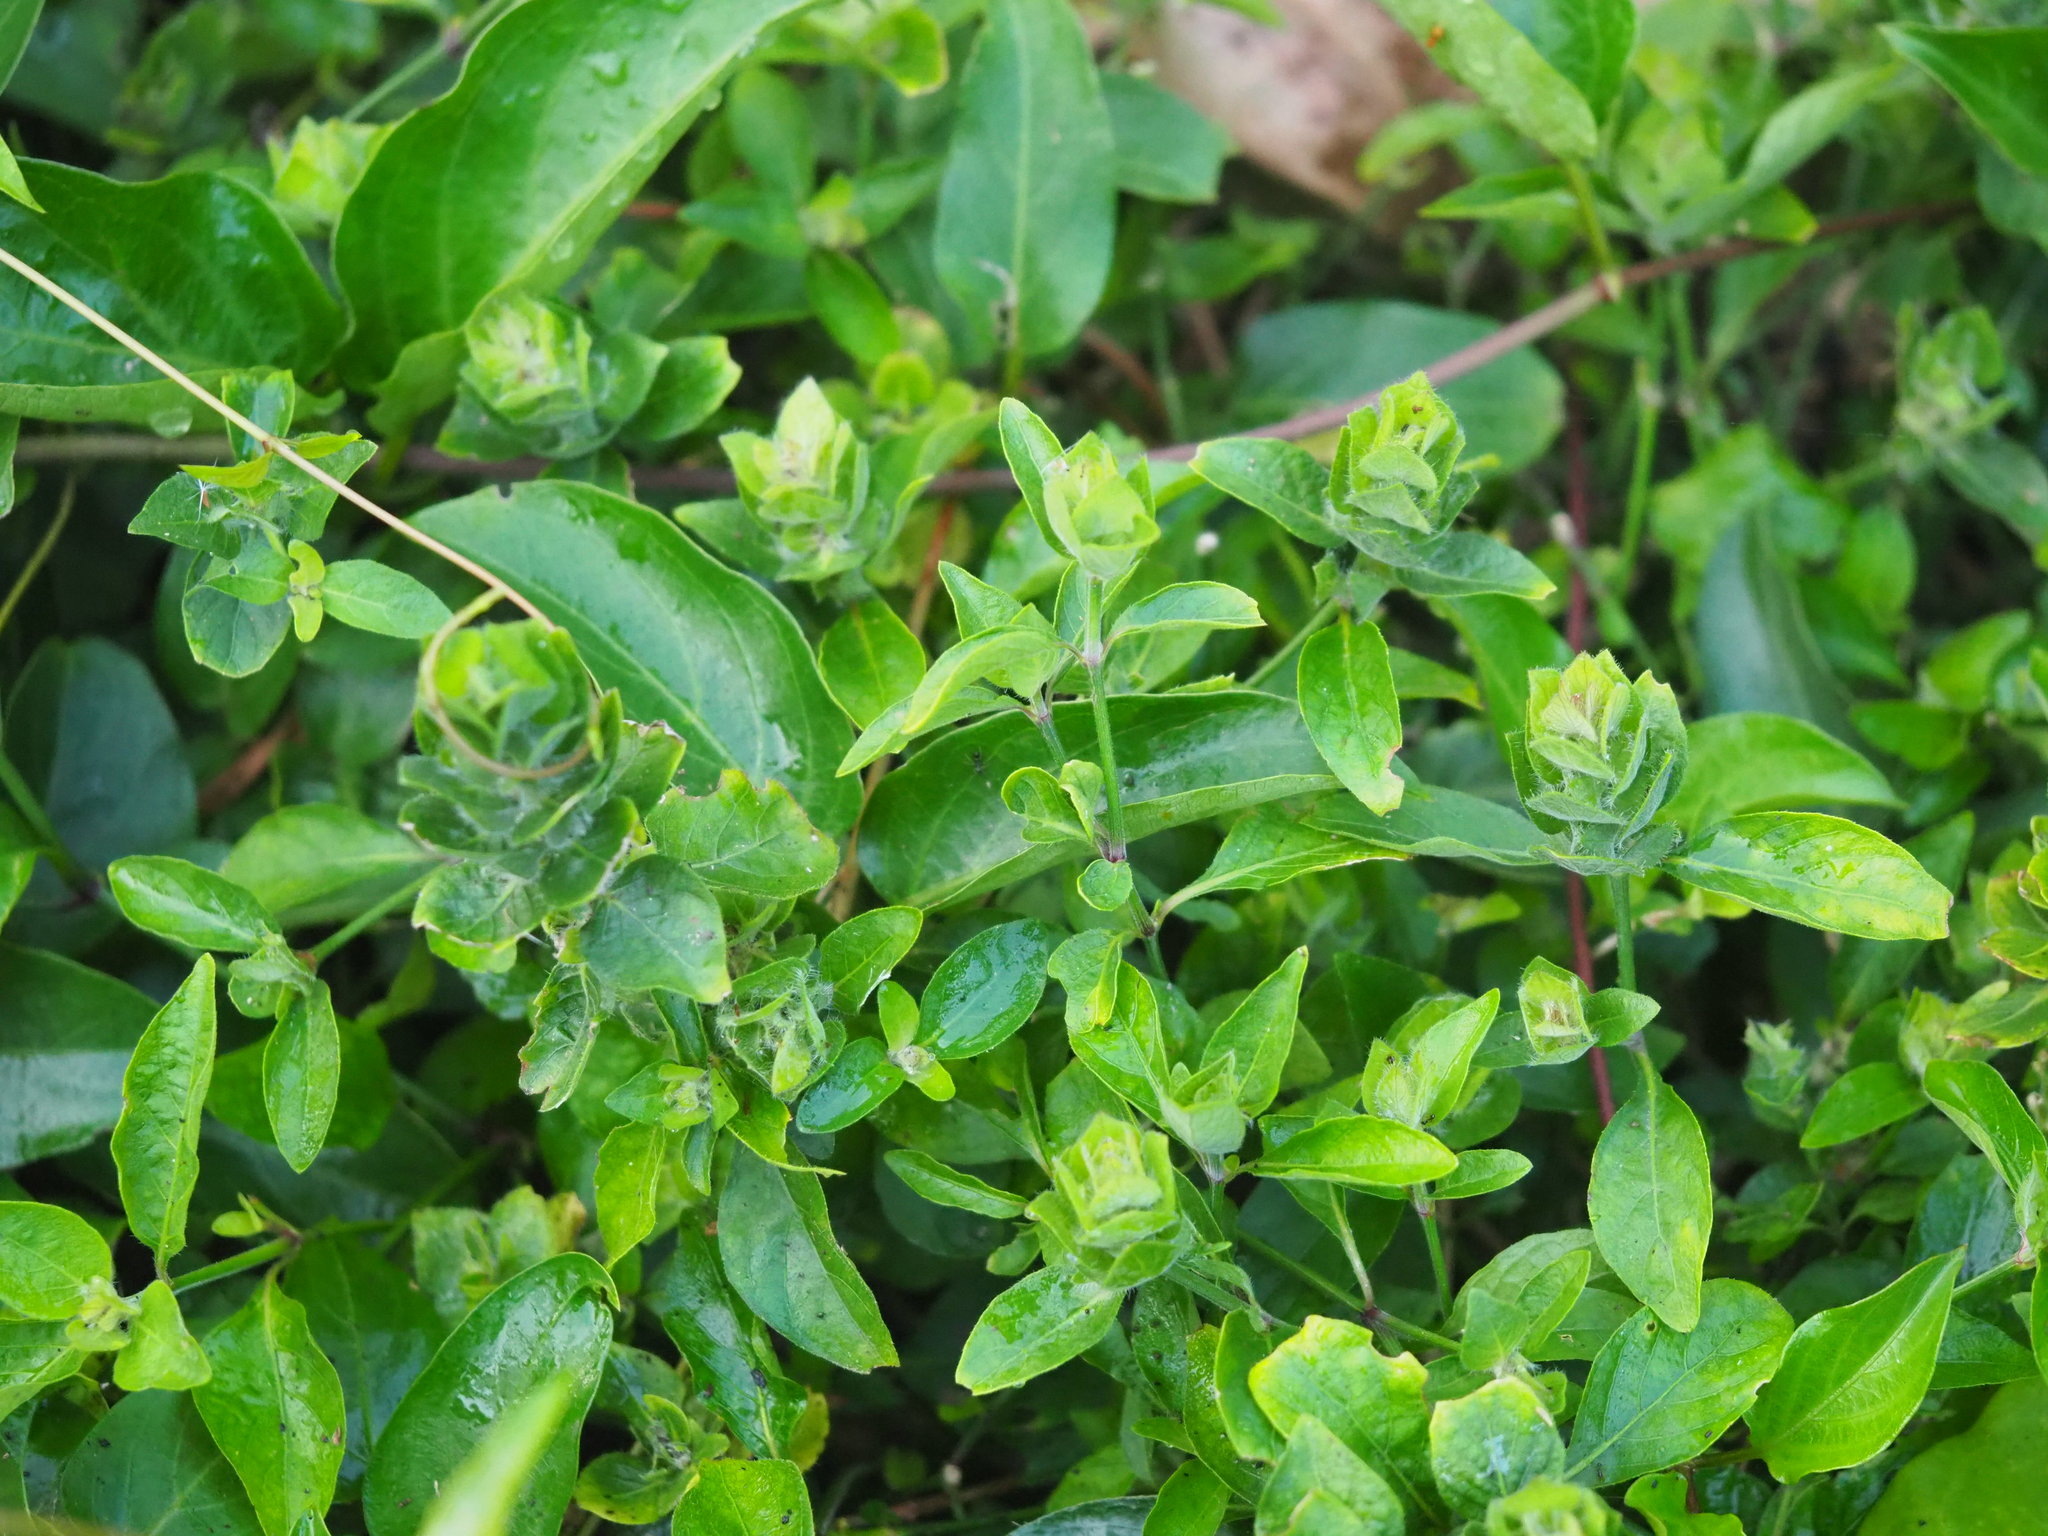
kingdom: Plantae
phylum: Tracheophyta
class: Magnoliopsida
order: Lamiales
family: Acanthaceae
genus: Ruellia
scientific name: Ruellia blechum
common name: Browne's blechum
